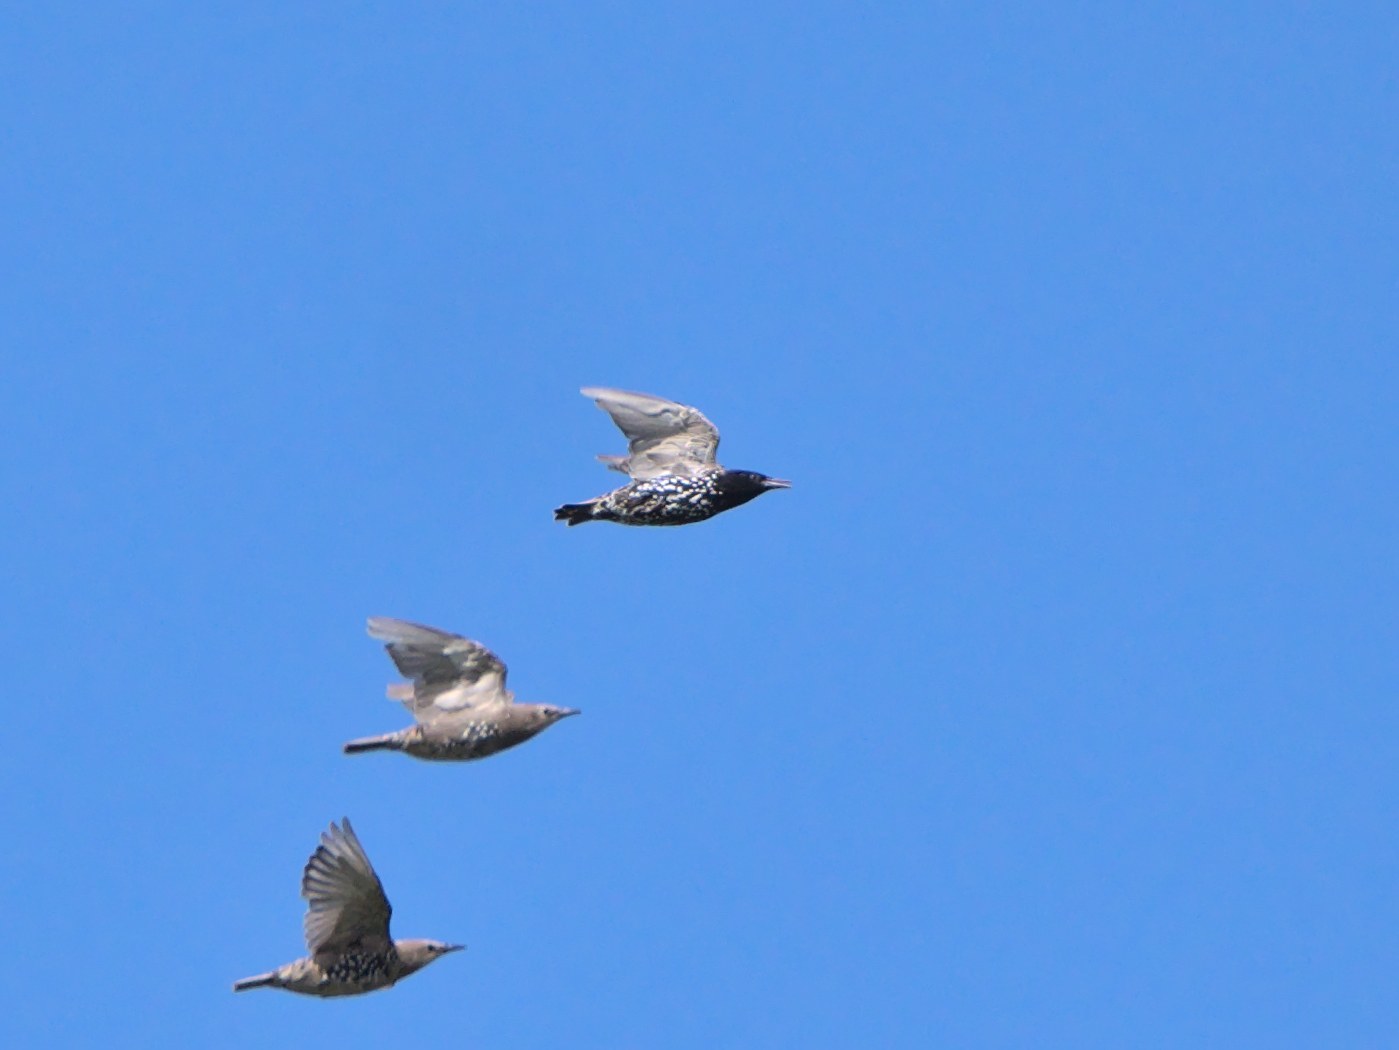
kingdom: Animalia
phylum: Chordata
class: Aves
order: Passeriformes
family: Sturnidae
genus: Sturnus
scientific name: Sturnus vulgaris
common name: Common starling
